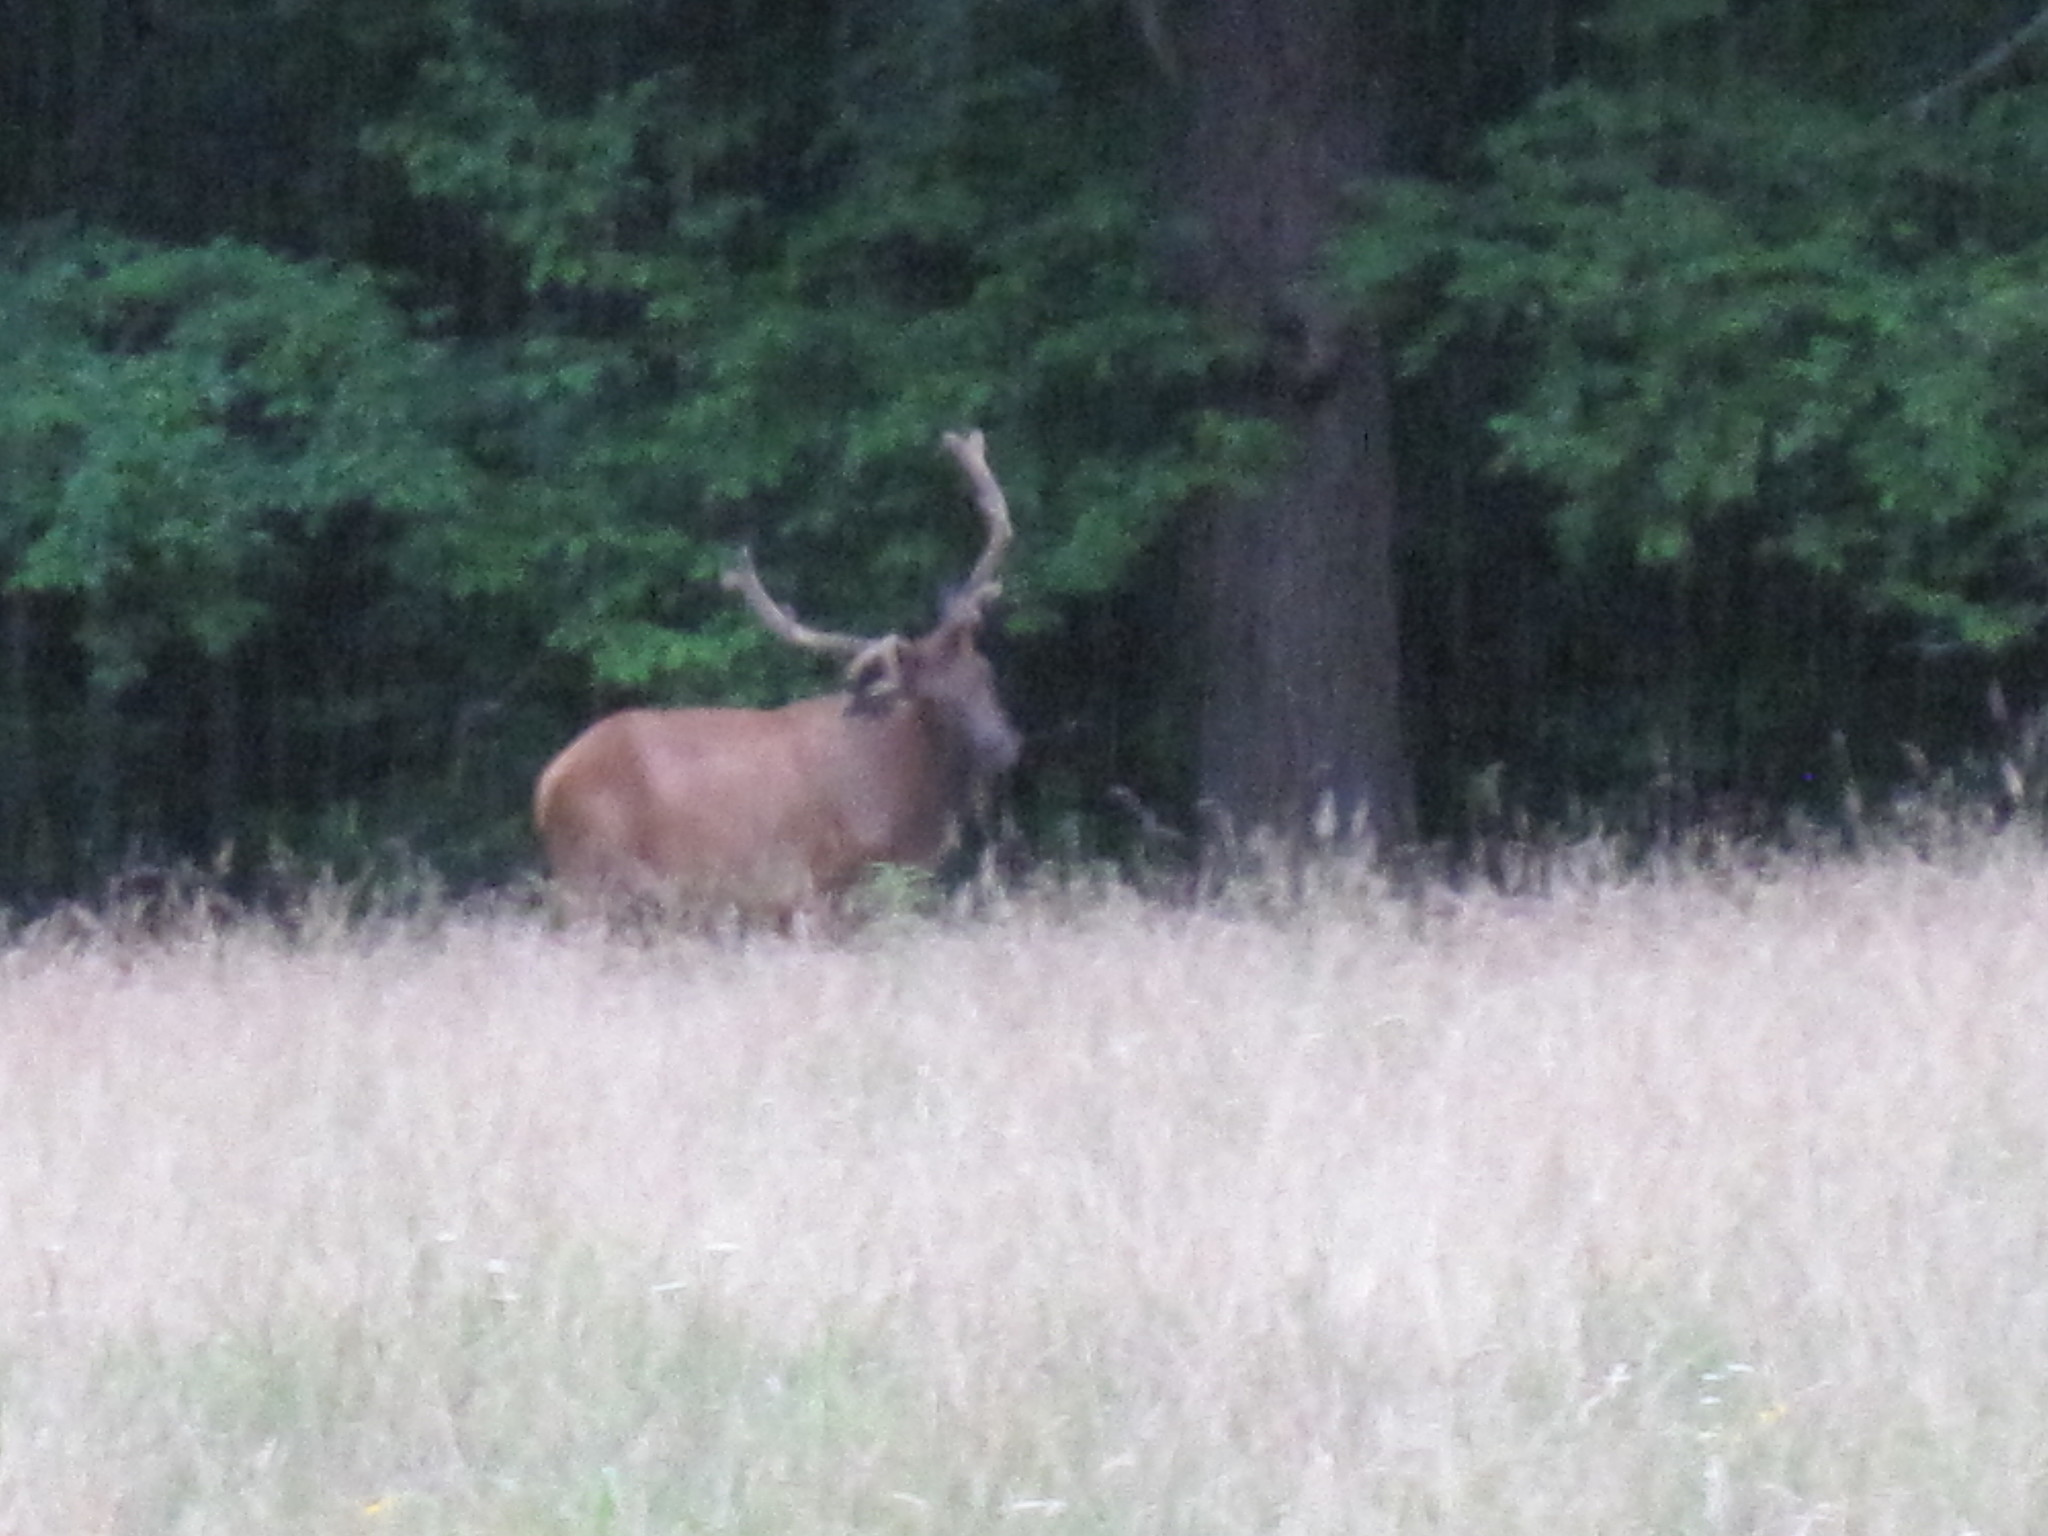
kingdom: Animalia
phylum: Chordata
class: Mammalia
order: Artiodactyla
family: Cervidae
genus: Cervus
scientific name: Cervus elaphus
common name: Red deer
